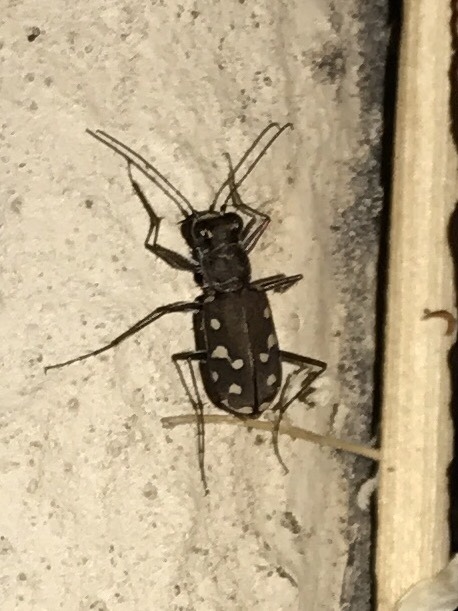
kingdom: Animalia
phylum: Arthropoda
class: Insecta
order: Coleoptera
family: Carabidae
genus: Cicindela
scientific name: Cicindela sedecimpunctata
